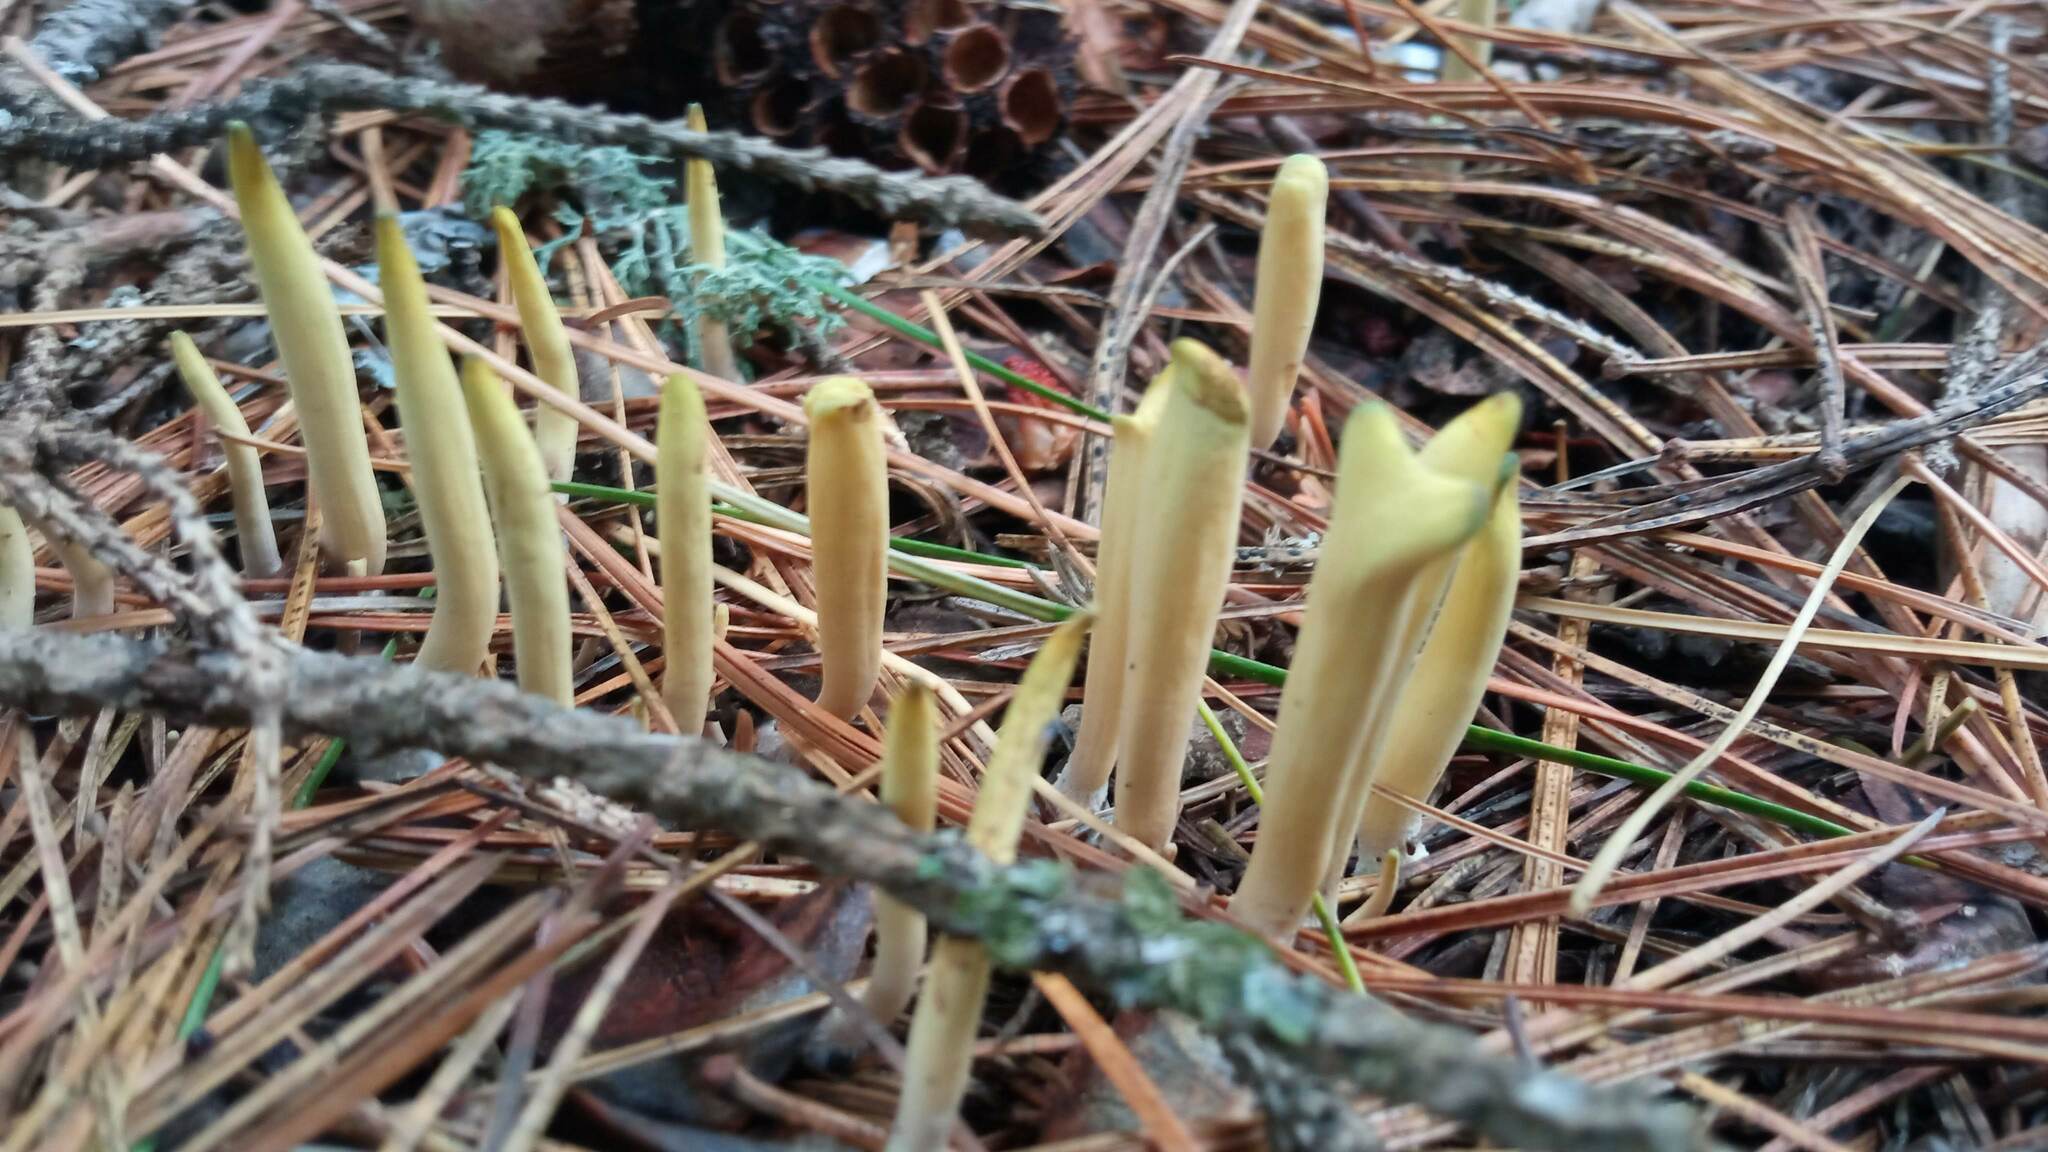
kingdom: Fungi
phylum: Basidiomycota
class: Agaricomycetes
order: Gomphales
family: Clavariadelphaceae
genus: Clavariadelphus
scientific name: Clavariadelphus ligula
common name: Ochre club
